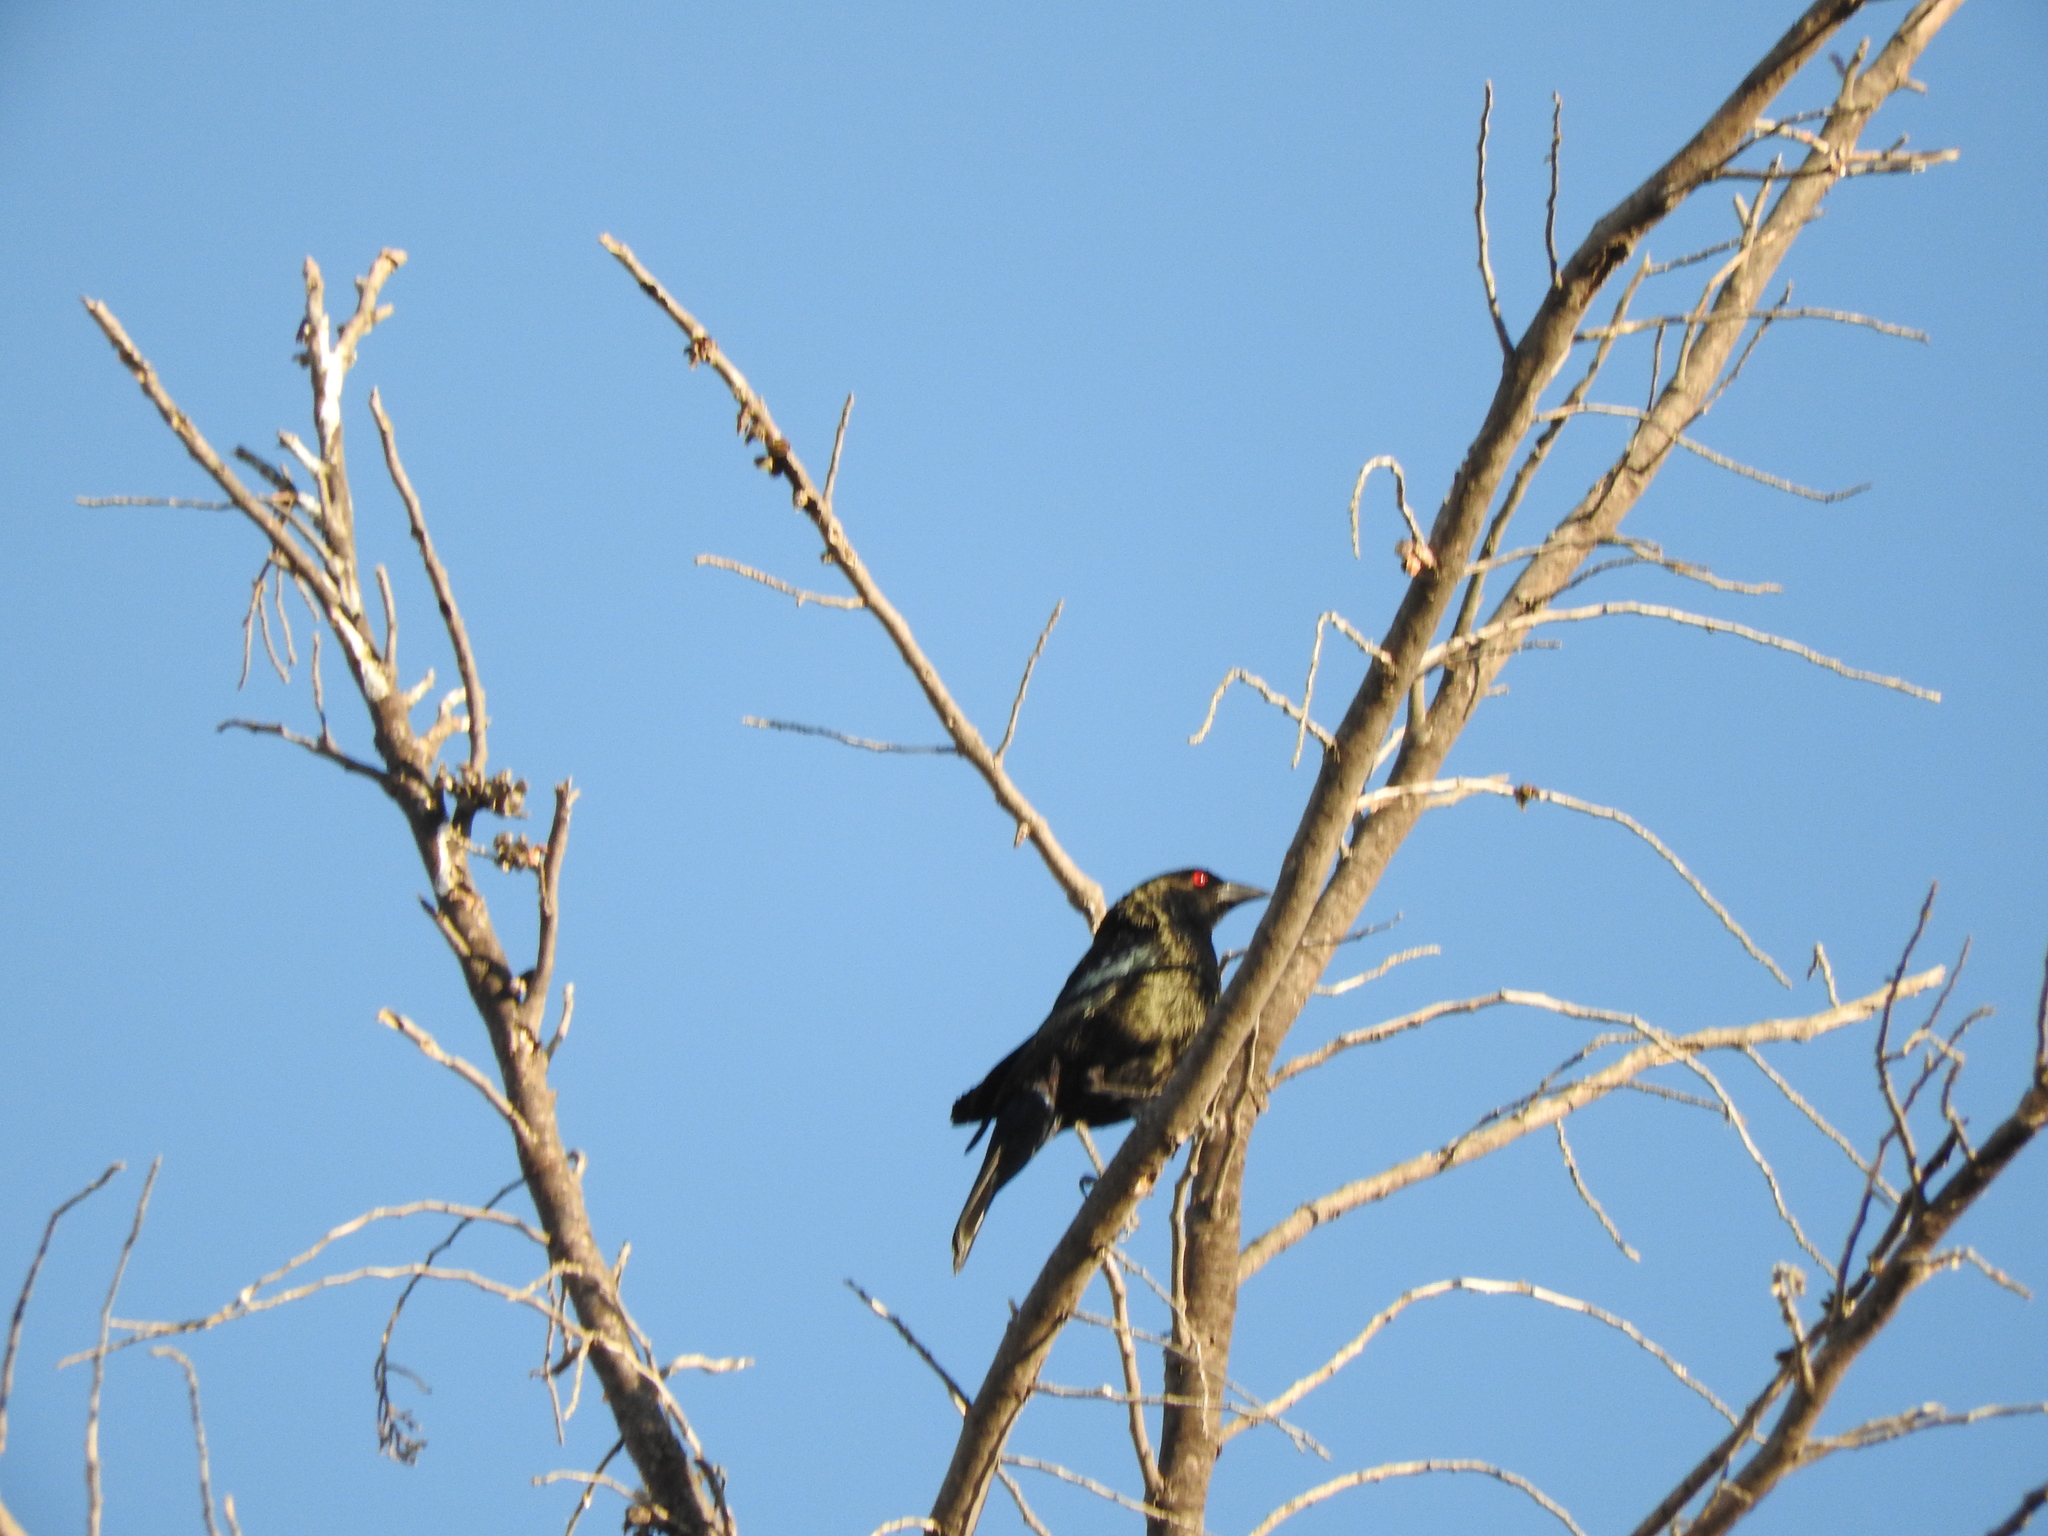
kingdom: Animalia
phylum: Chordata
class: Aves
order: Passeriformes
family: Icteridae
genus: Molothrus
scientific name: Molothrus aeneus
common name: Bronzed cowbird
